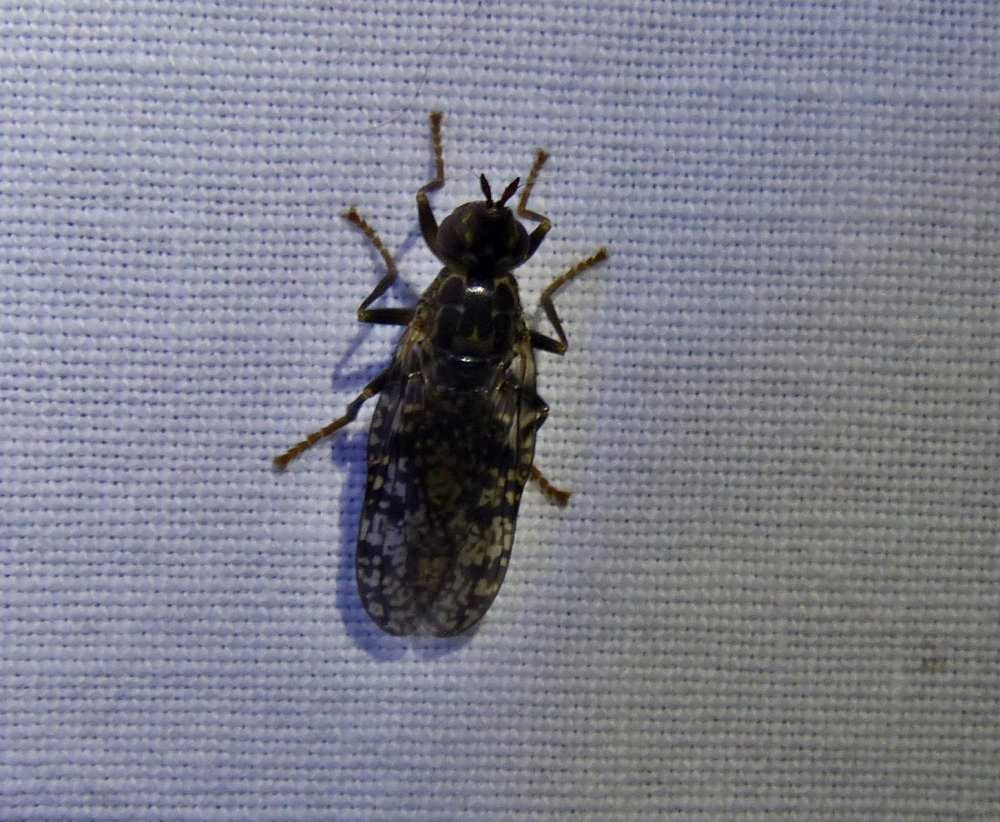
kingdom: Animalia
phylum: Arthropoda
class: Insecta
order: Diptera
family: Pyrgotidae
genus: Pyrgota
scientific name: Pyrgota valida
